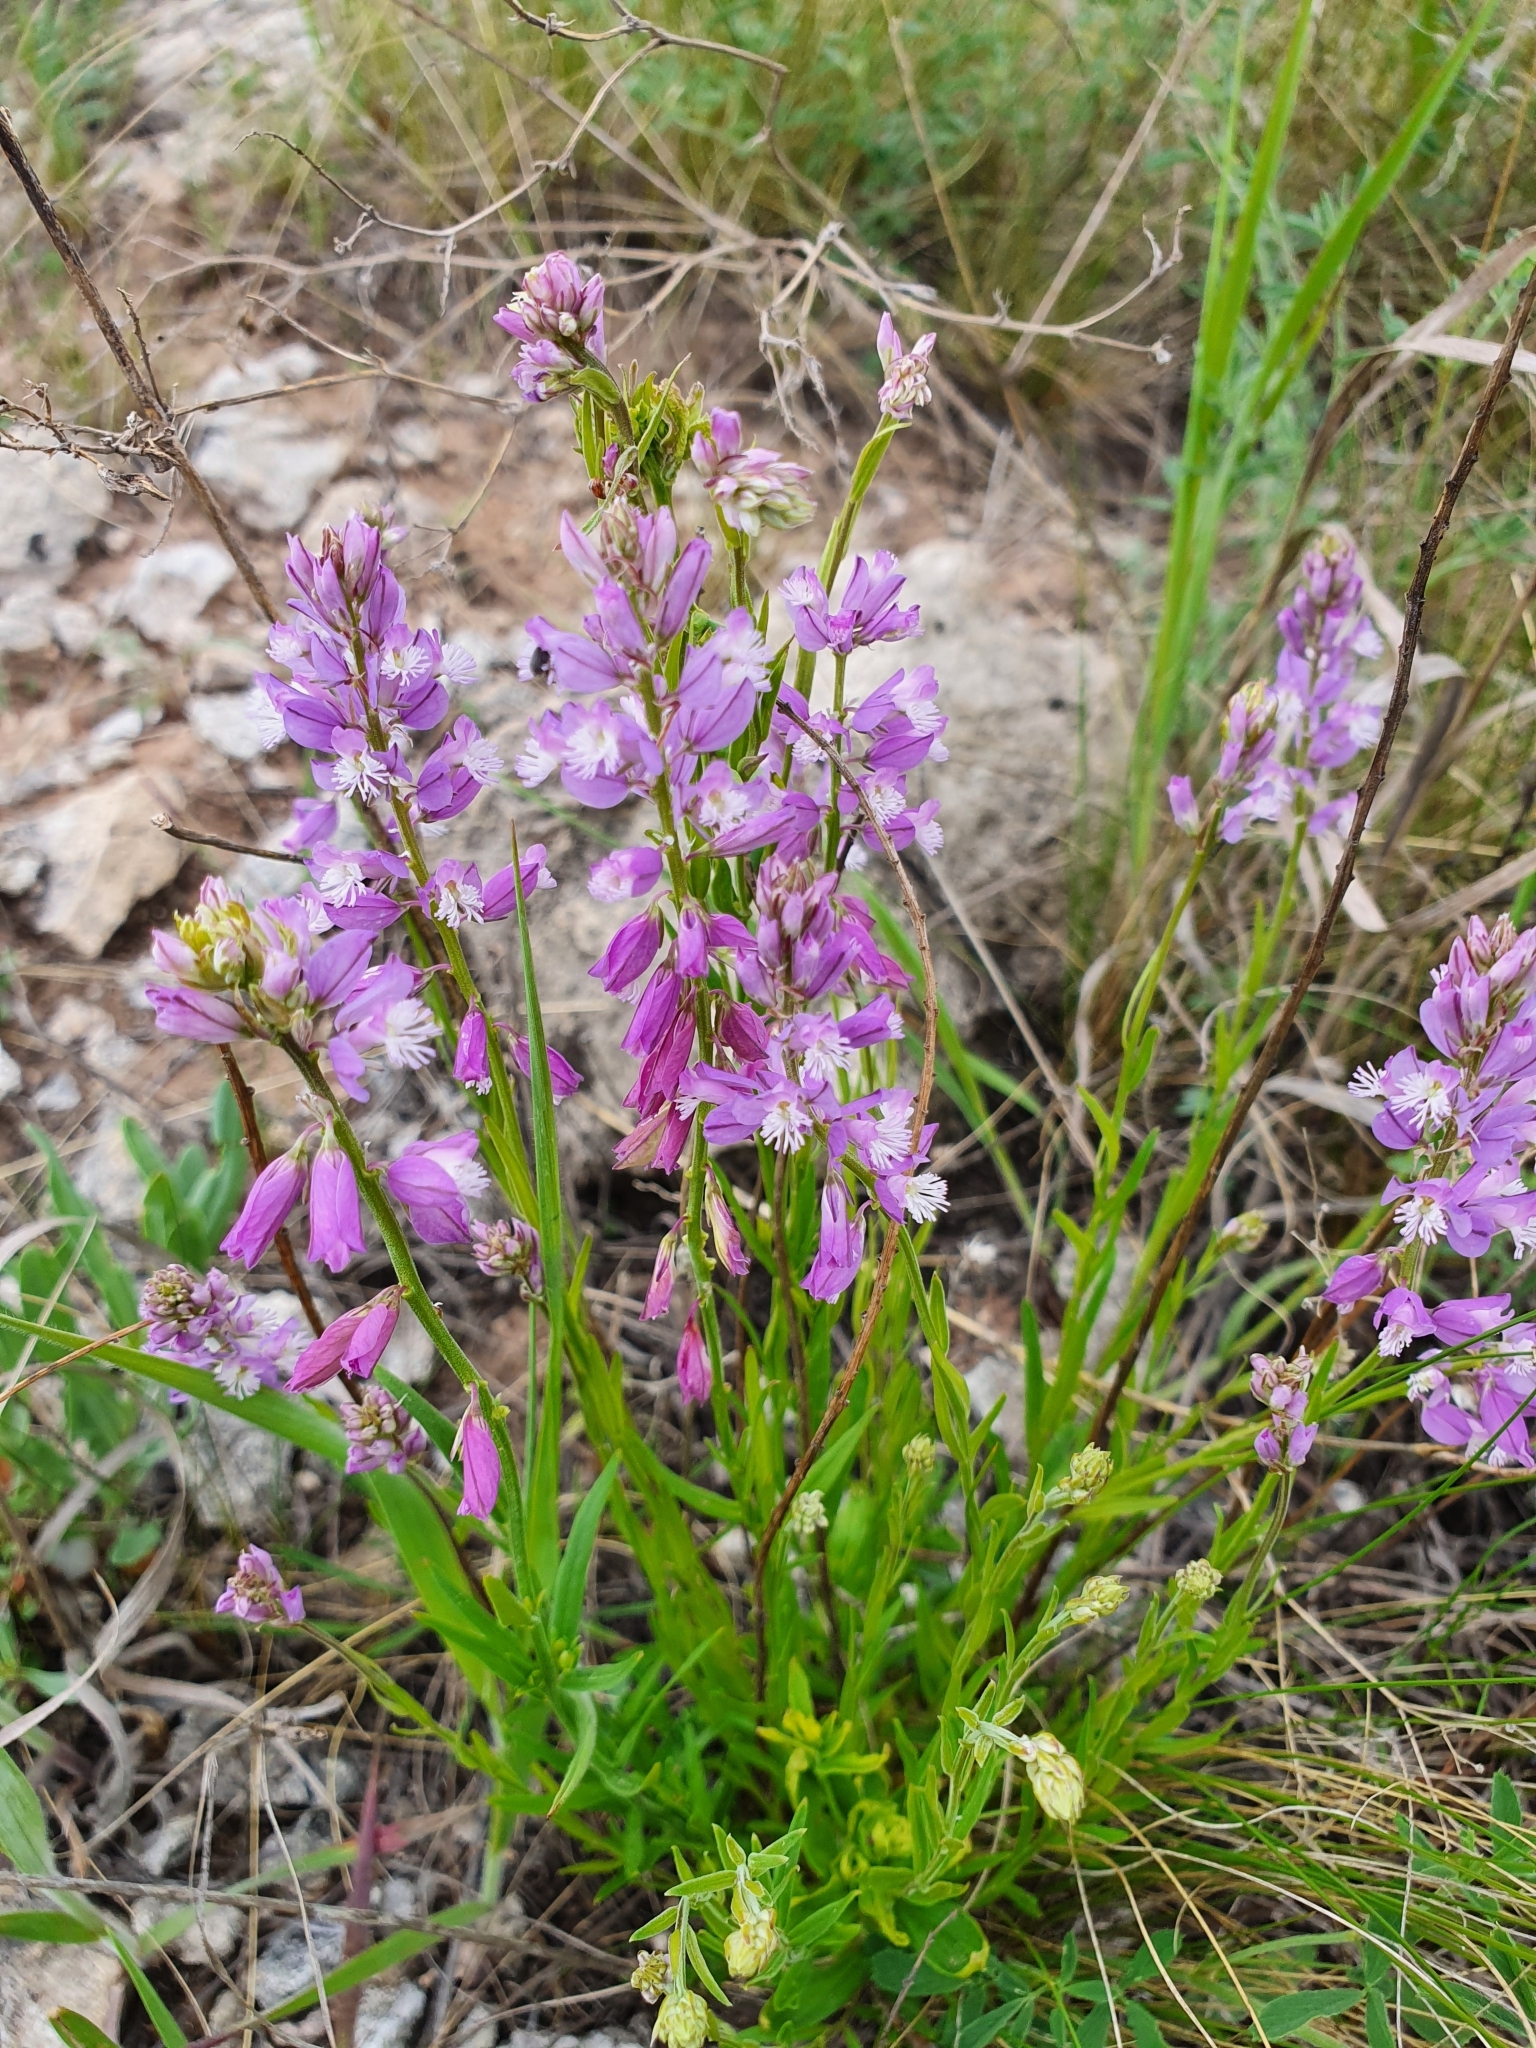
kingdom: Plantae
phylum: Tracheophyta
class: Magnoliopsida
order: Fabales
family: Polygalaceae
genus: Polygala
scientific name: Polygala comosa
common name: Tufted milkwort
